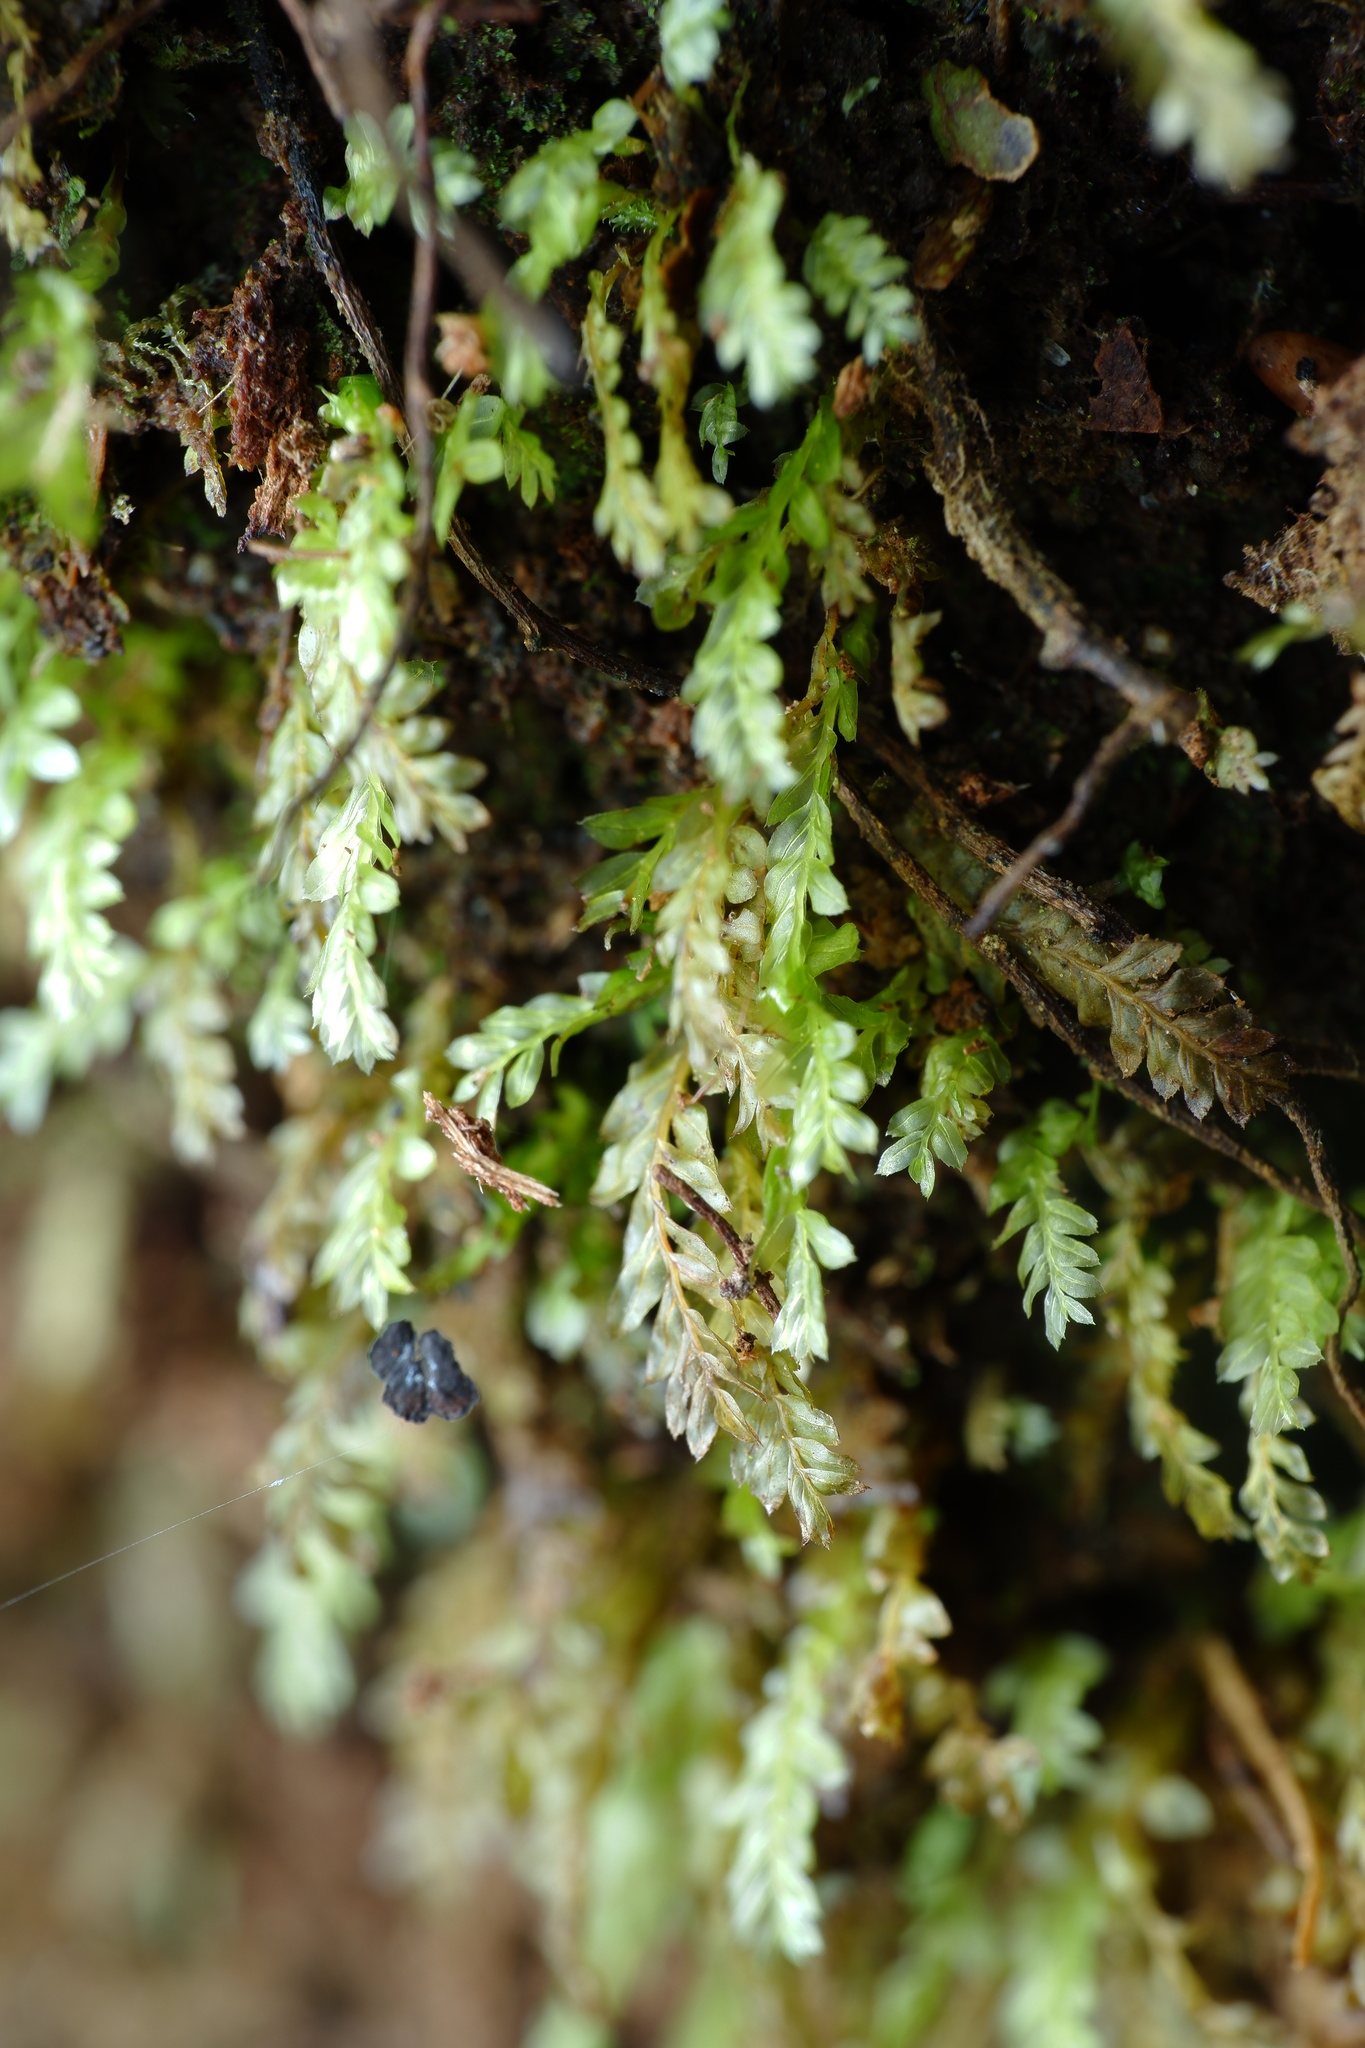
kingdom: Plantae
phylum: Bryophyta
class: Bryopsida
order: Rhizogoniales
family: Rhizogoniaceae
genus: Rhizogonium
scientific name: Rhizogonium distichum
